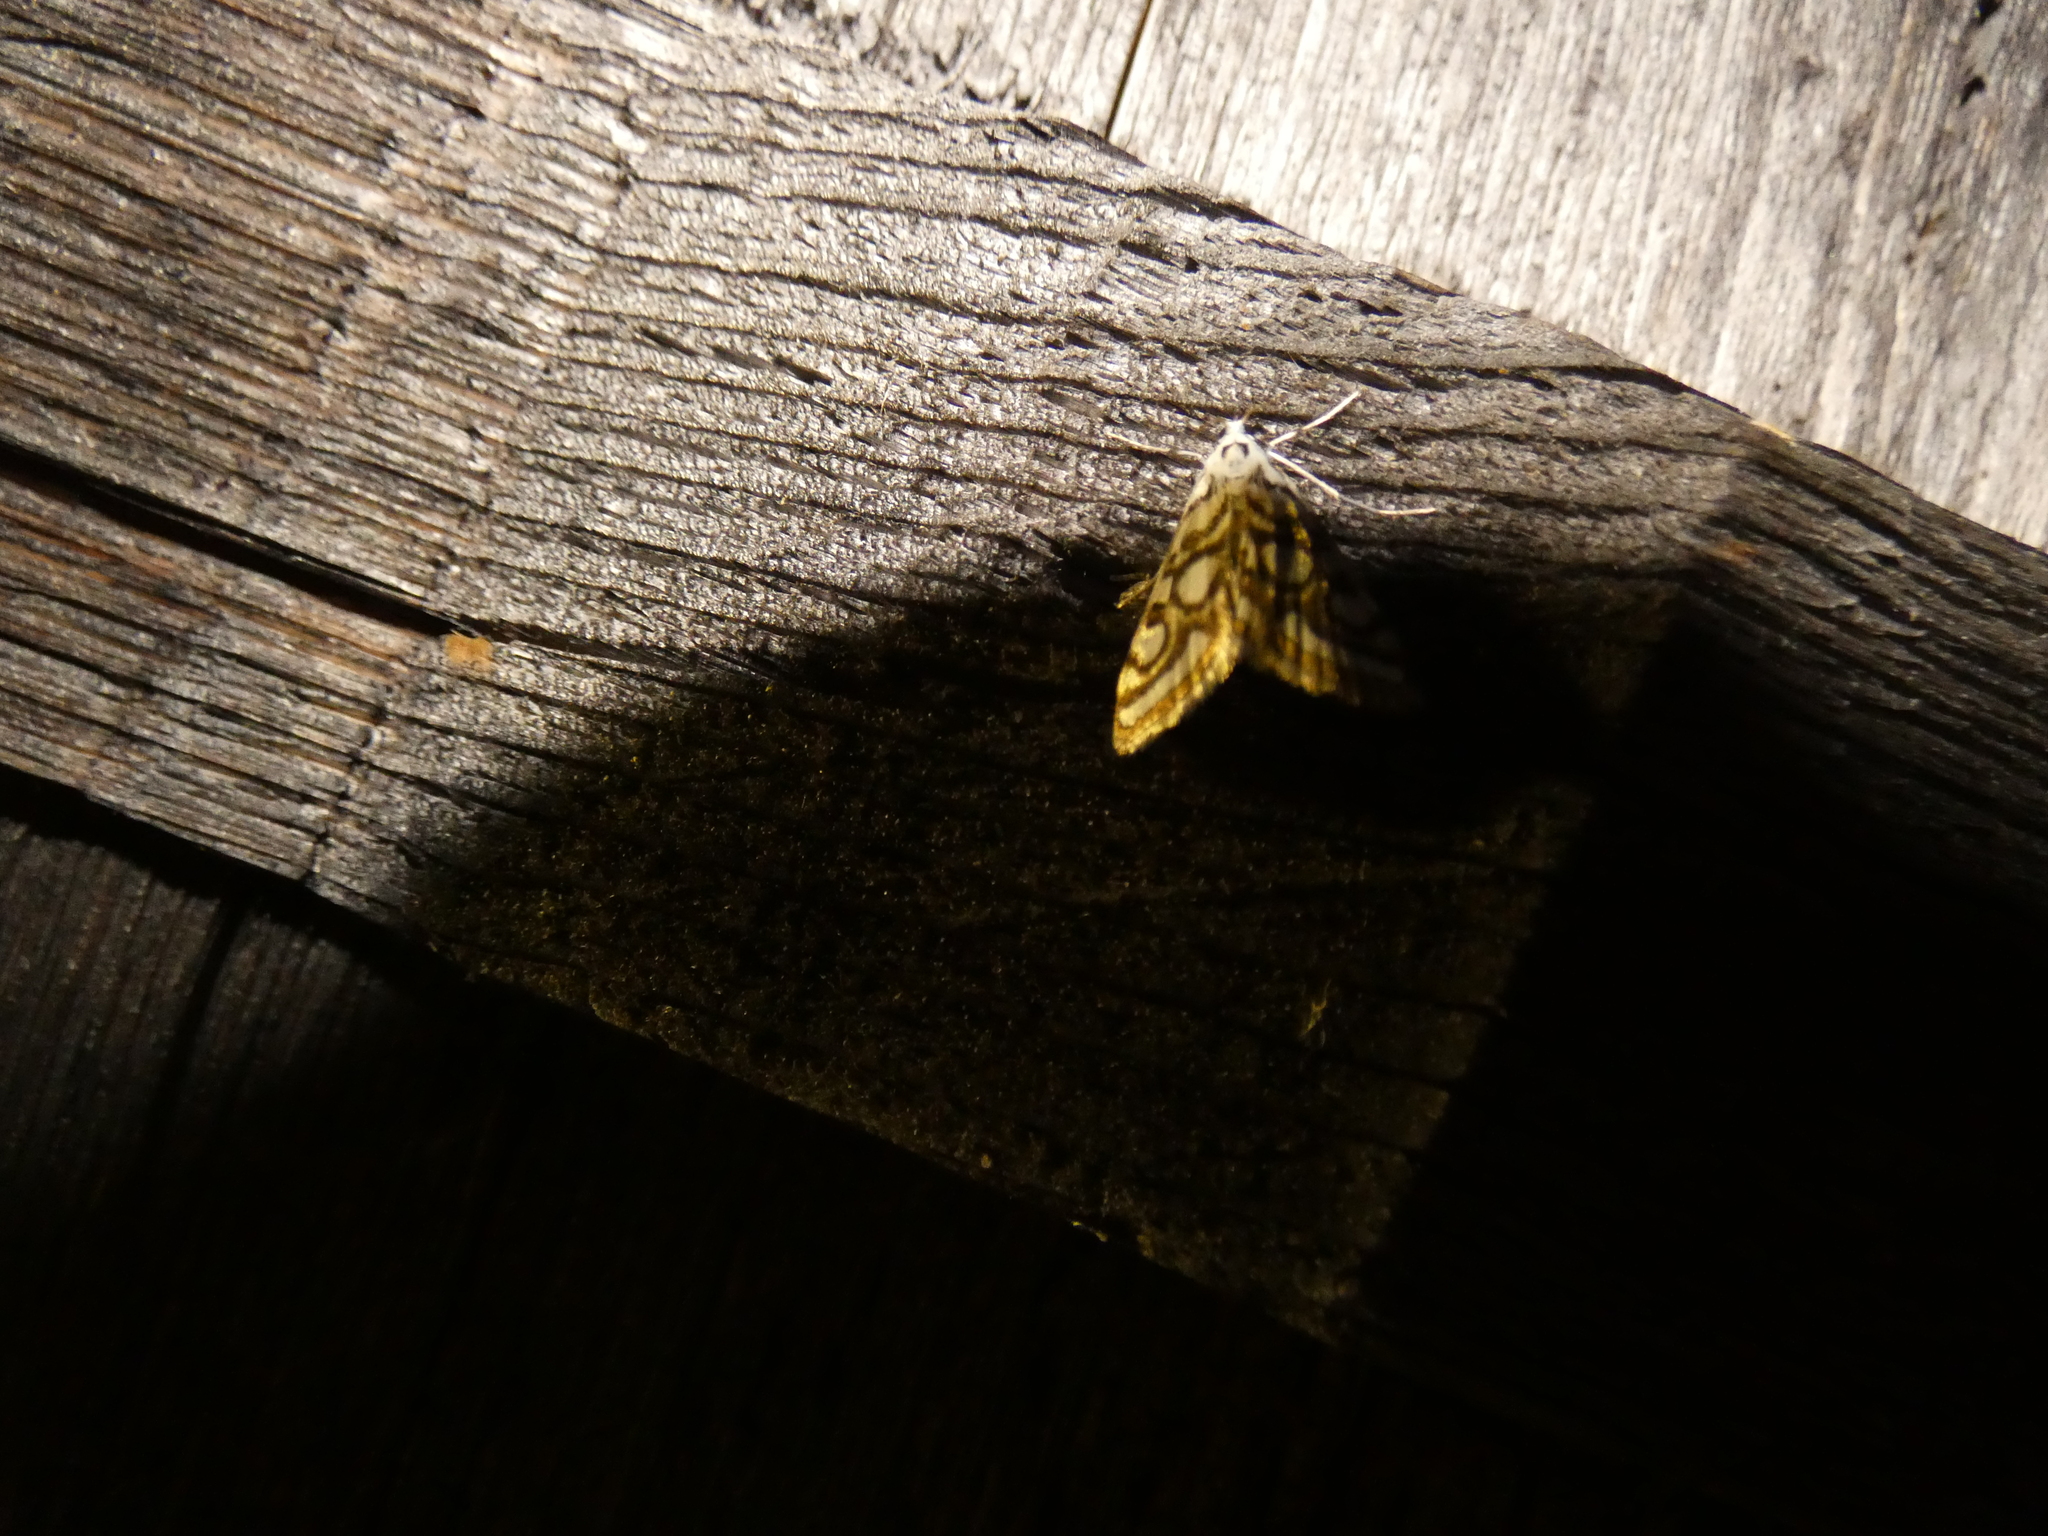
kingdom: Animalia
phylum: Arthropoda
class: Insecta
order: Lepidoptera
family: Crambidae
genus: Nymphula
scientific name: Nymphula nitidulata
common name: Beautiful china mark
